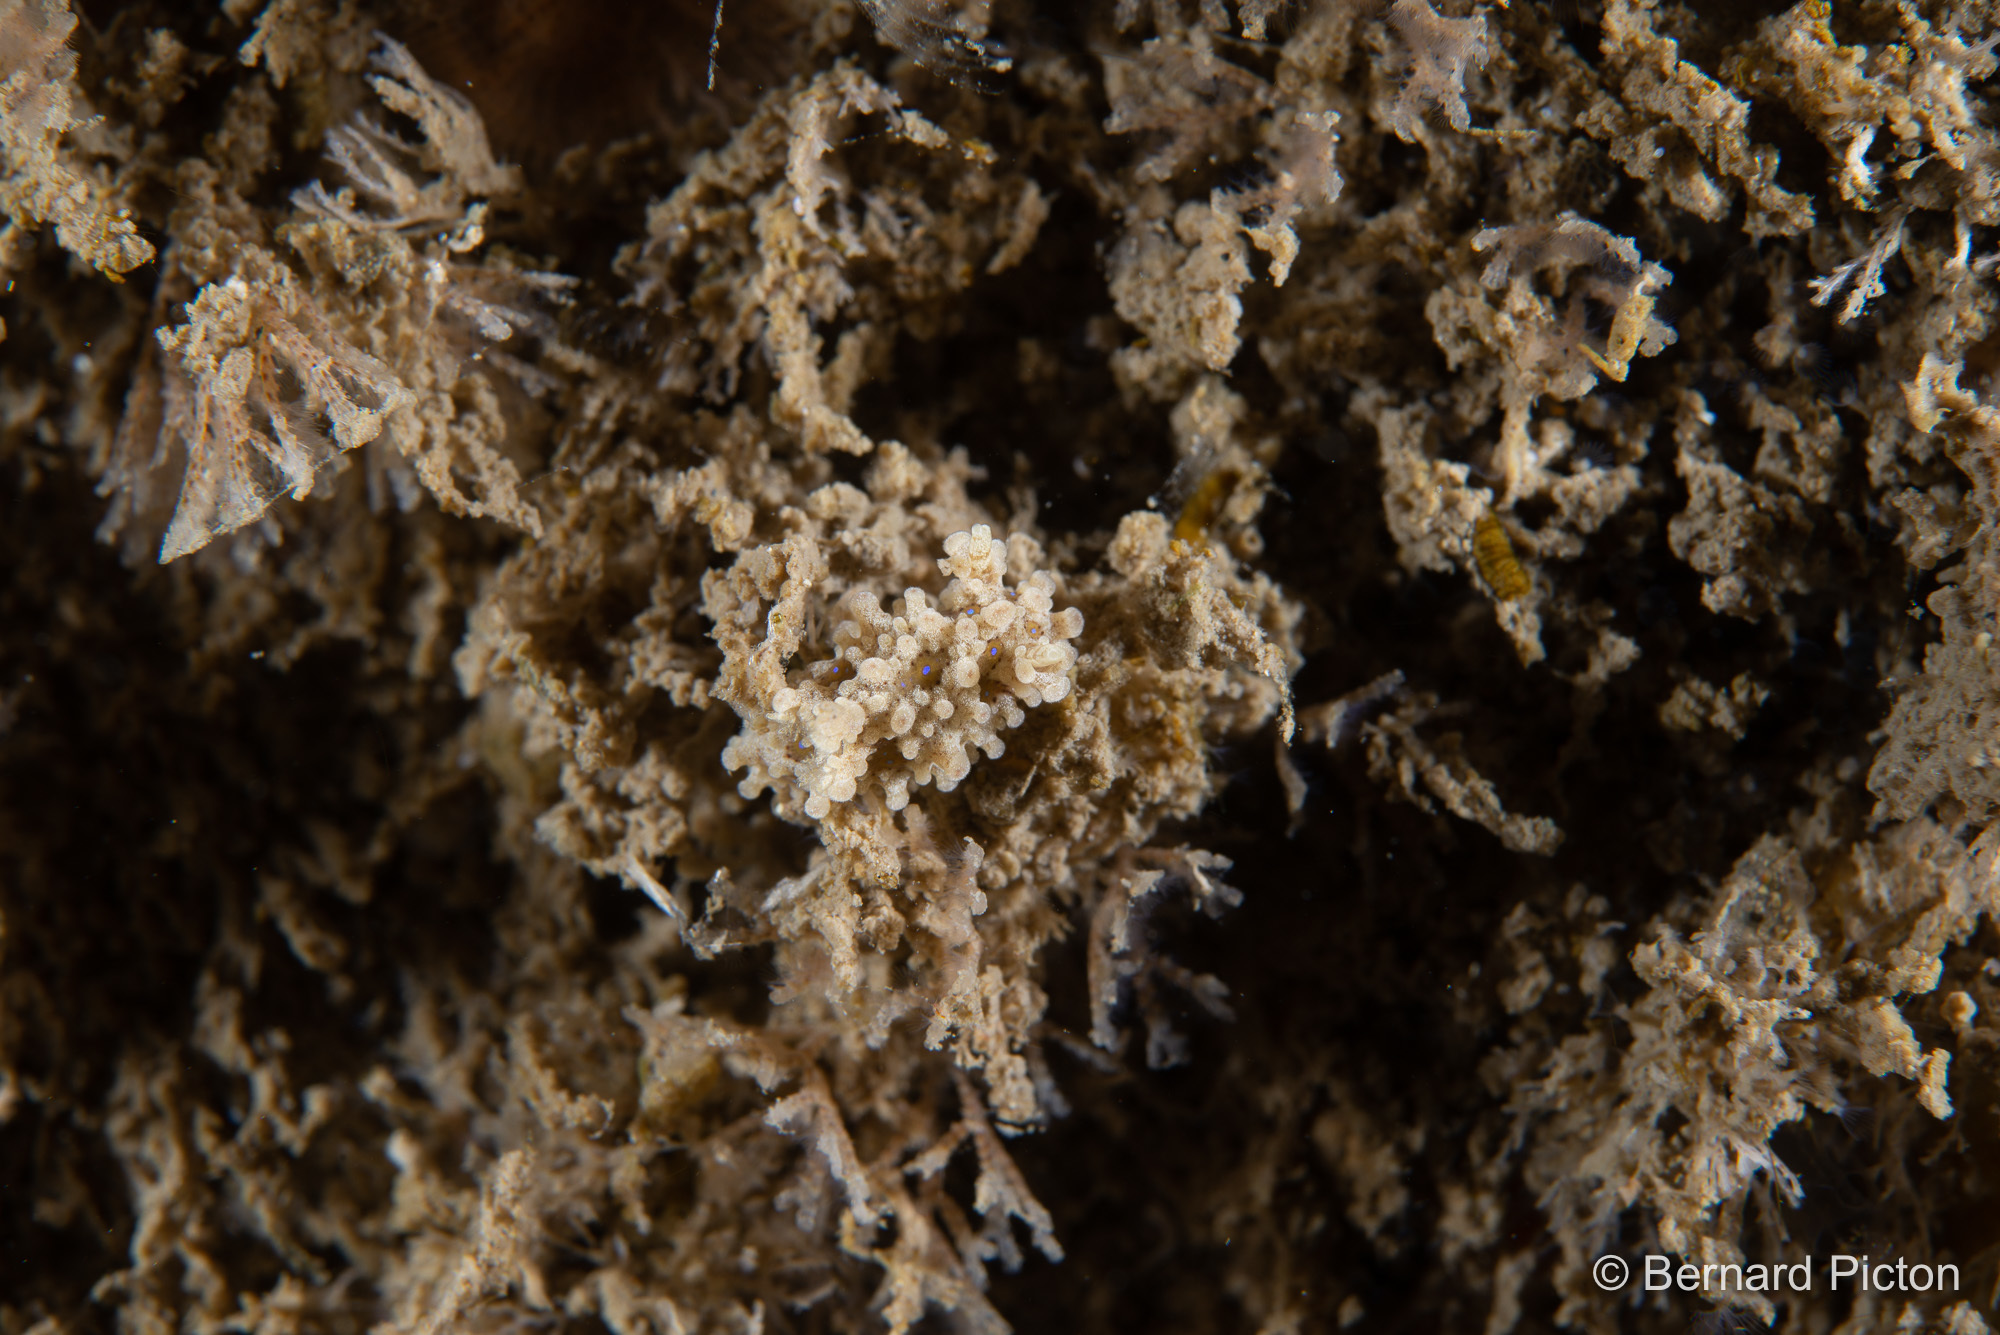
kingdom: Animalia
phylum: Mollusca
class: Gastropoda
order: Nudibranchia
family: Aegiridae
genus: Aegires
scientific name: Aegires punctilucens
